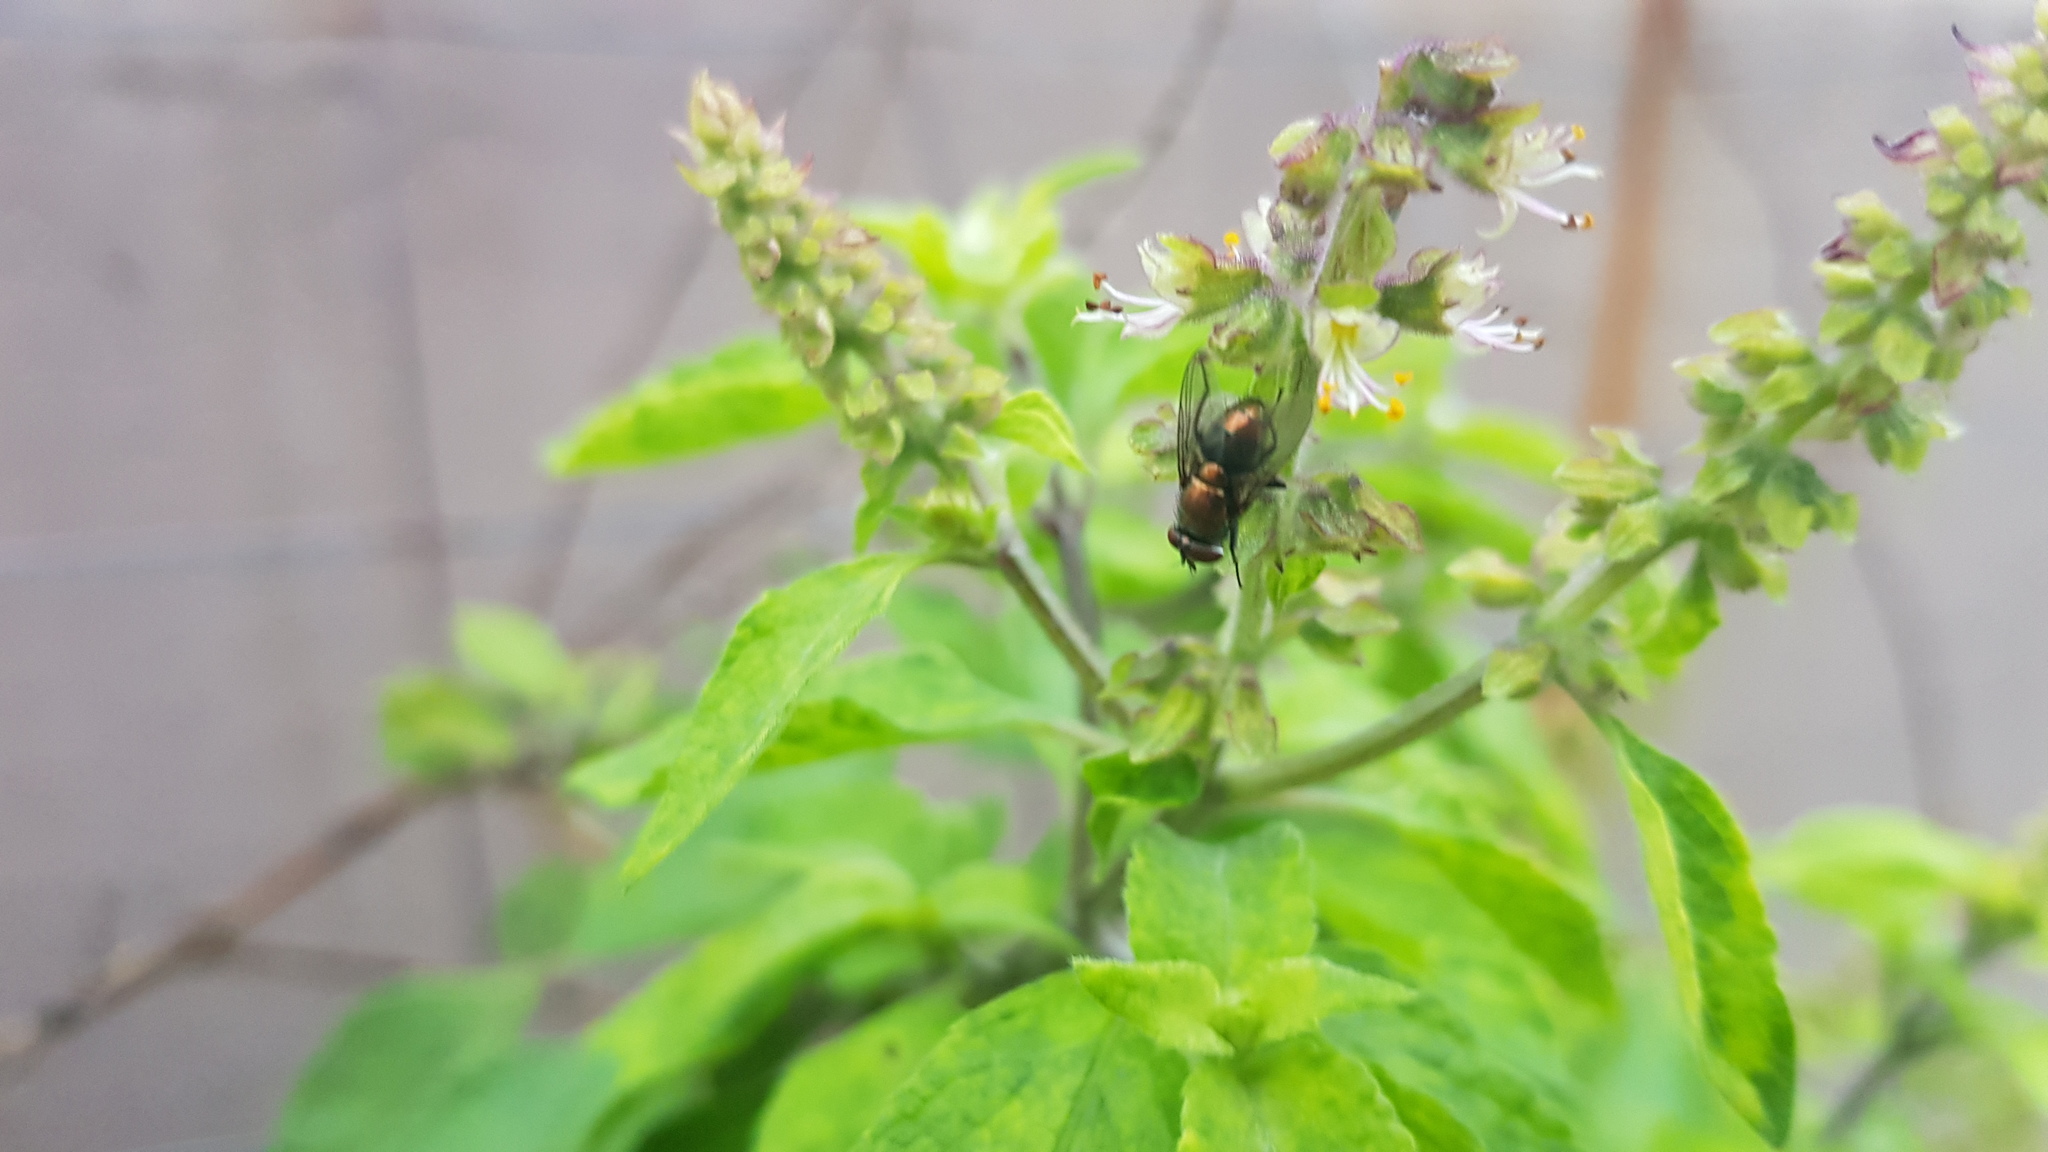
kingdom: Animalia
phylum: Arthropoda
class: Insecta
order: Diptera
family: Calliphoridae
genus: Lucilia
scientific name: Lucilia cuprina
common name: Sheep blow fly
